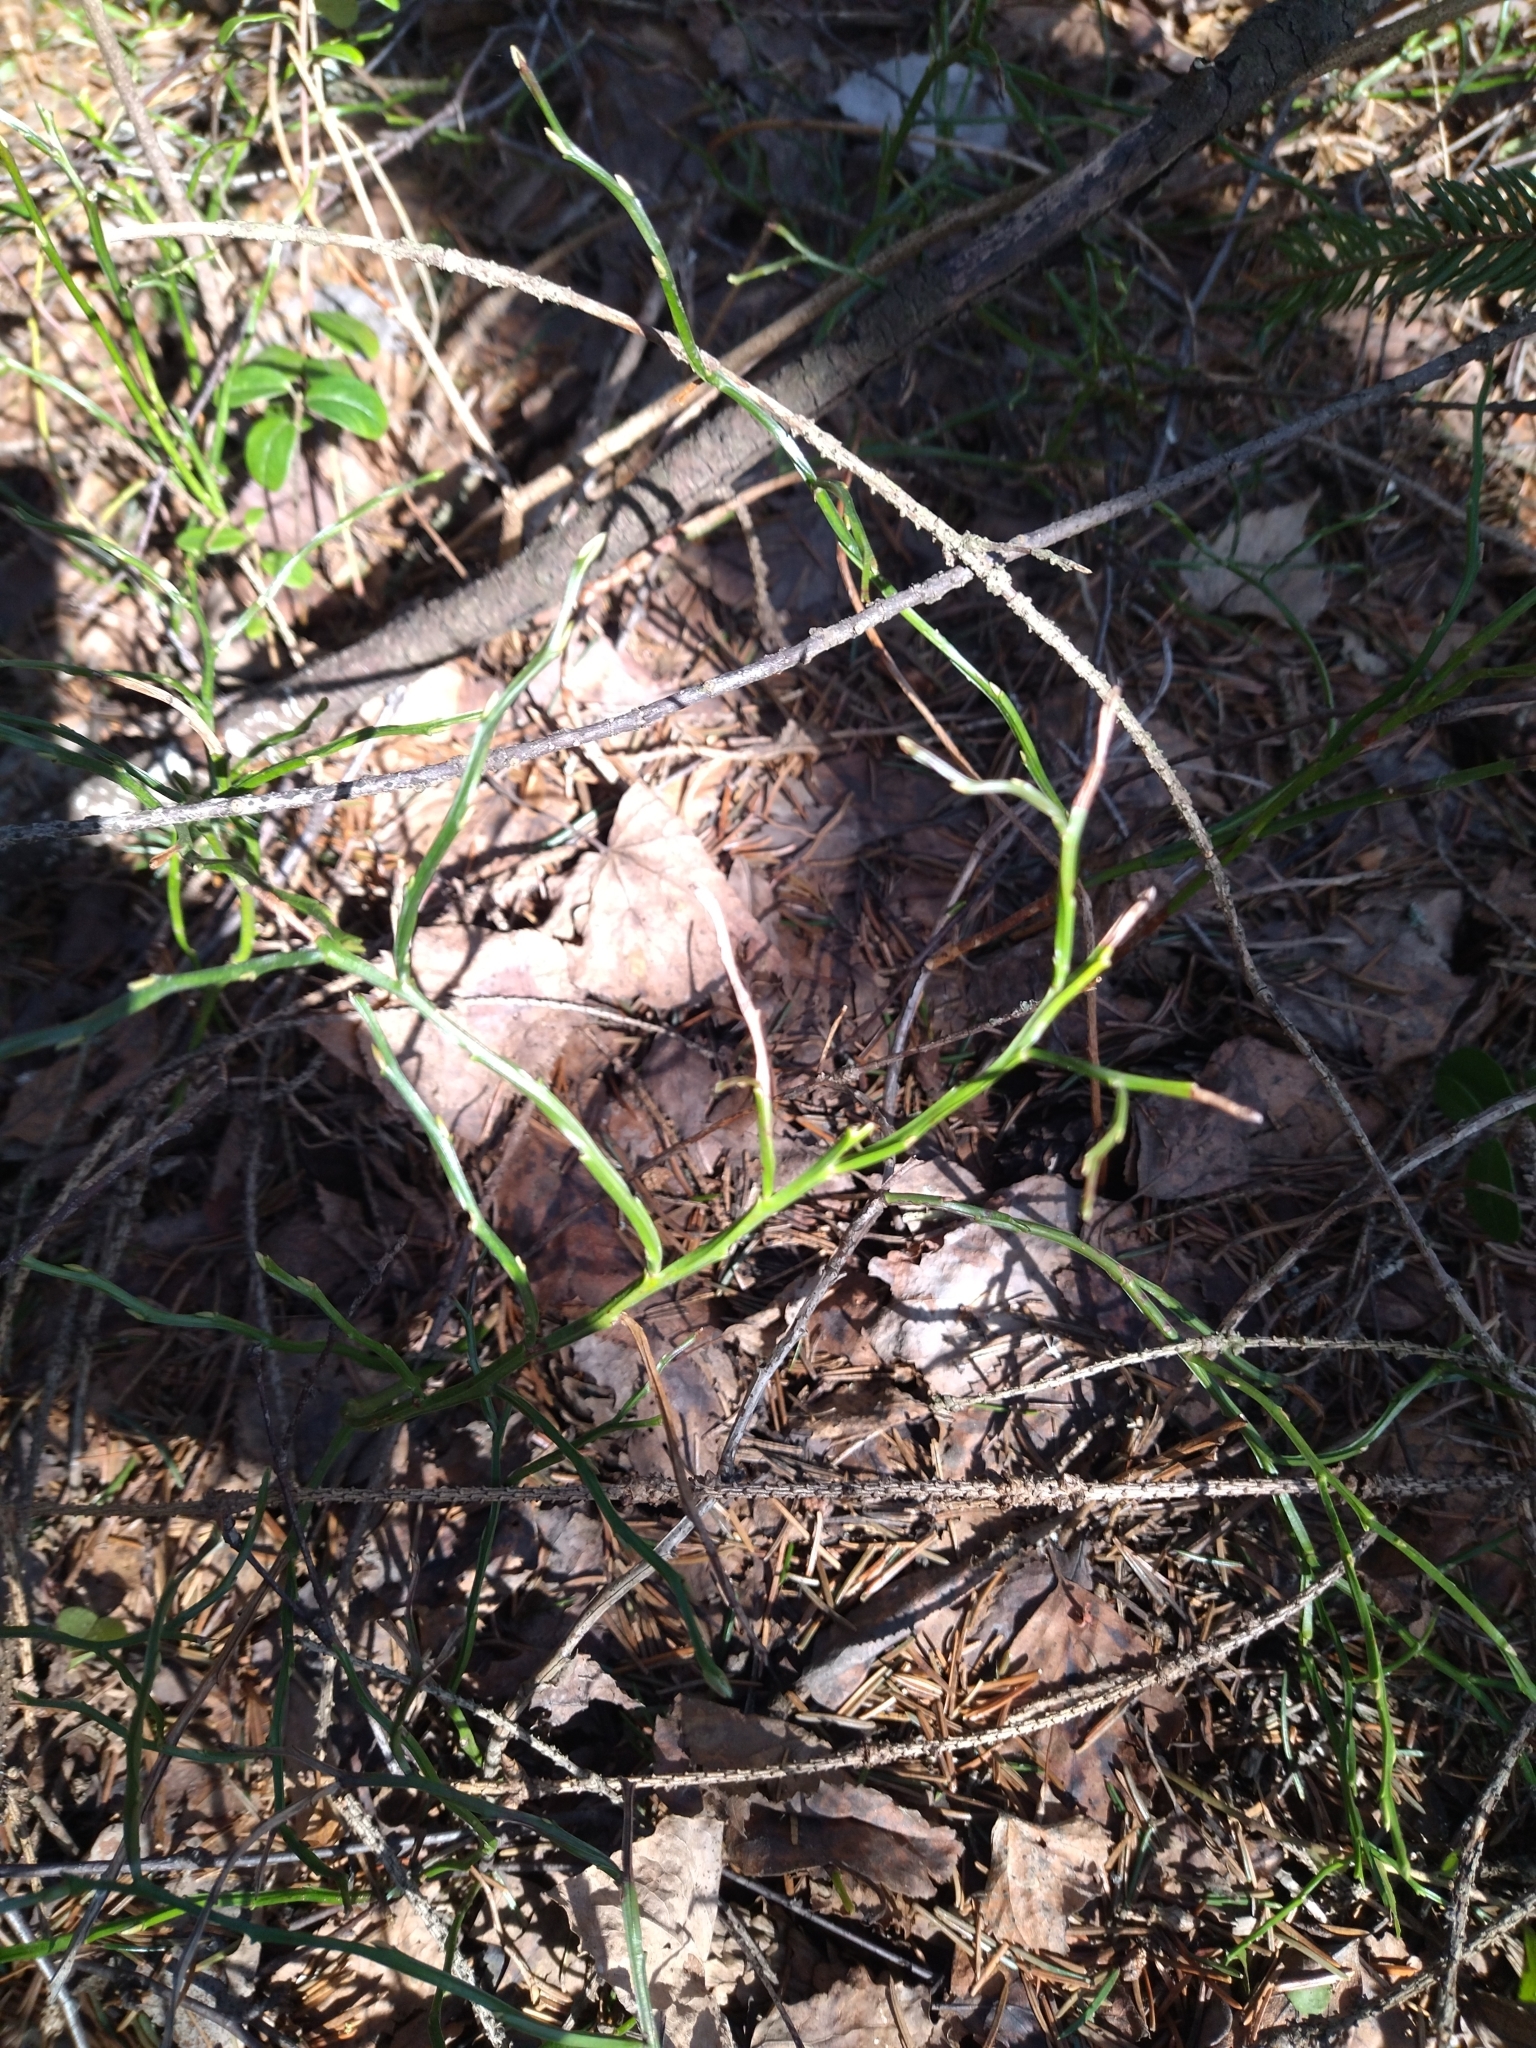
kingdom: Plantae
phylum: Tracheophyta
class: Magnoliopsida
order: Ericales
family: Ericaceae
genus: Vaccinium
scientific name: Vaccinium myrtillus
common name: Bilberry
